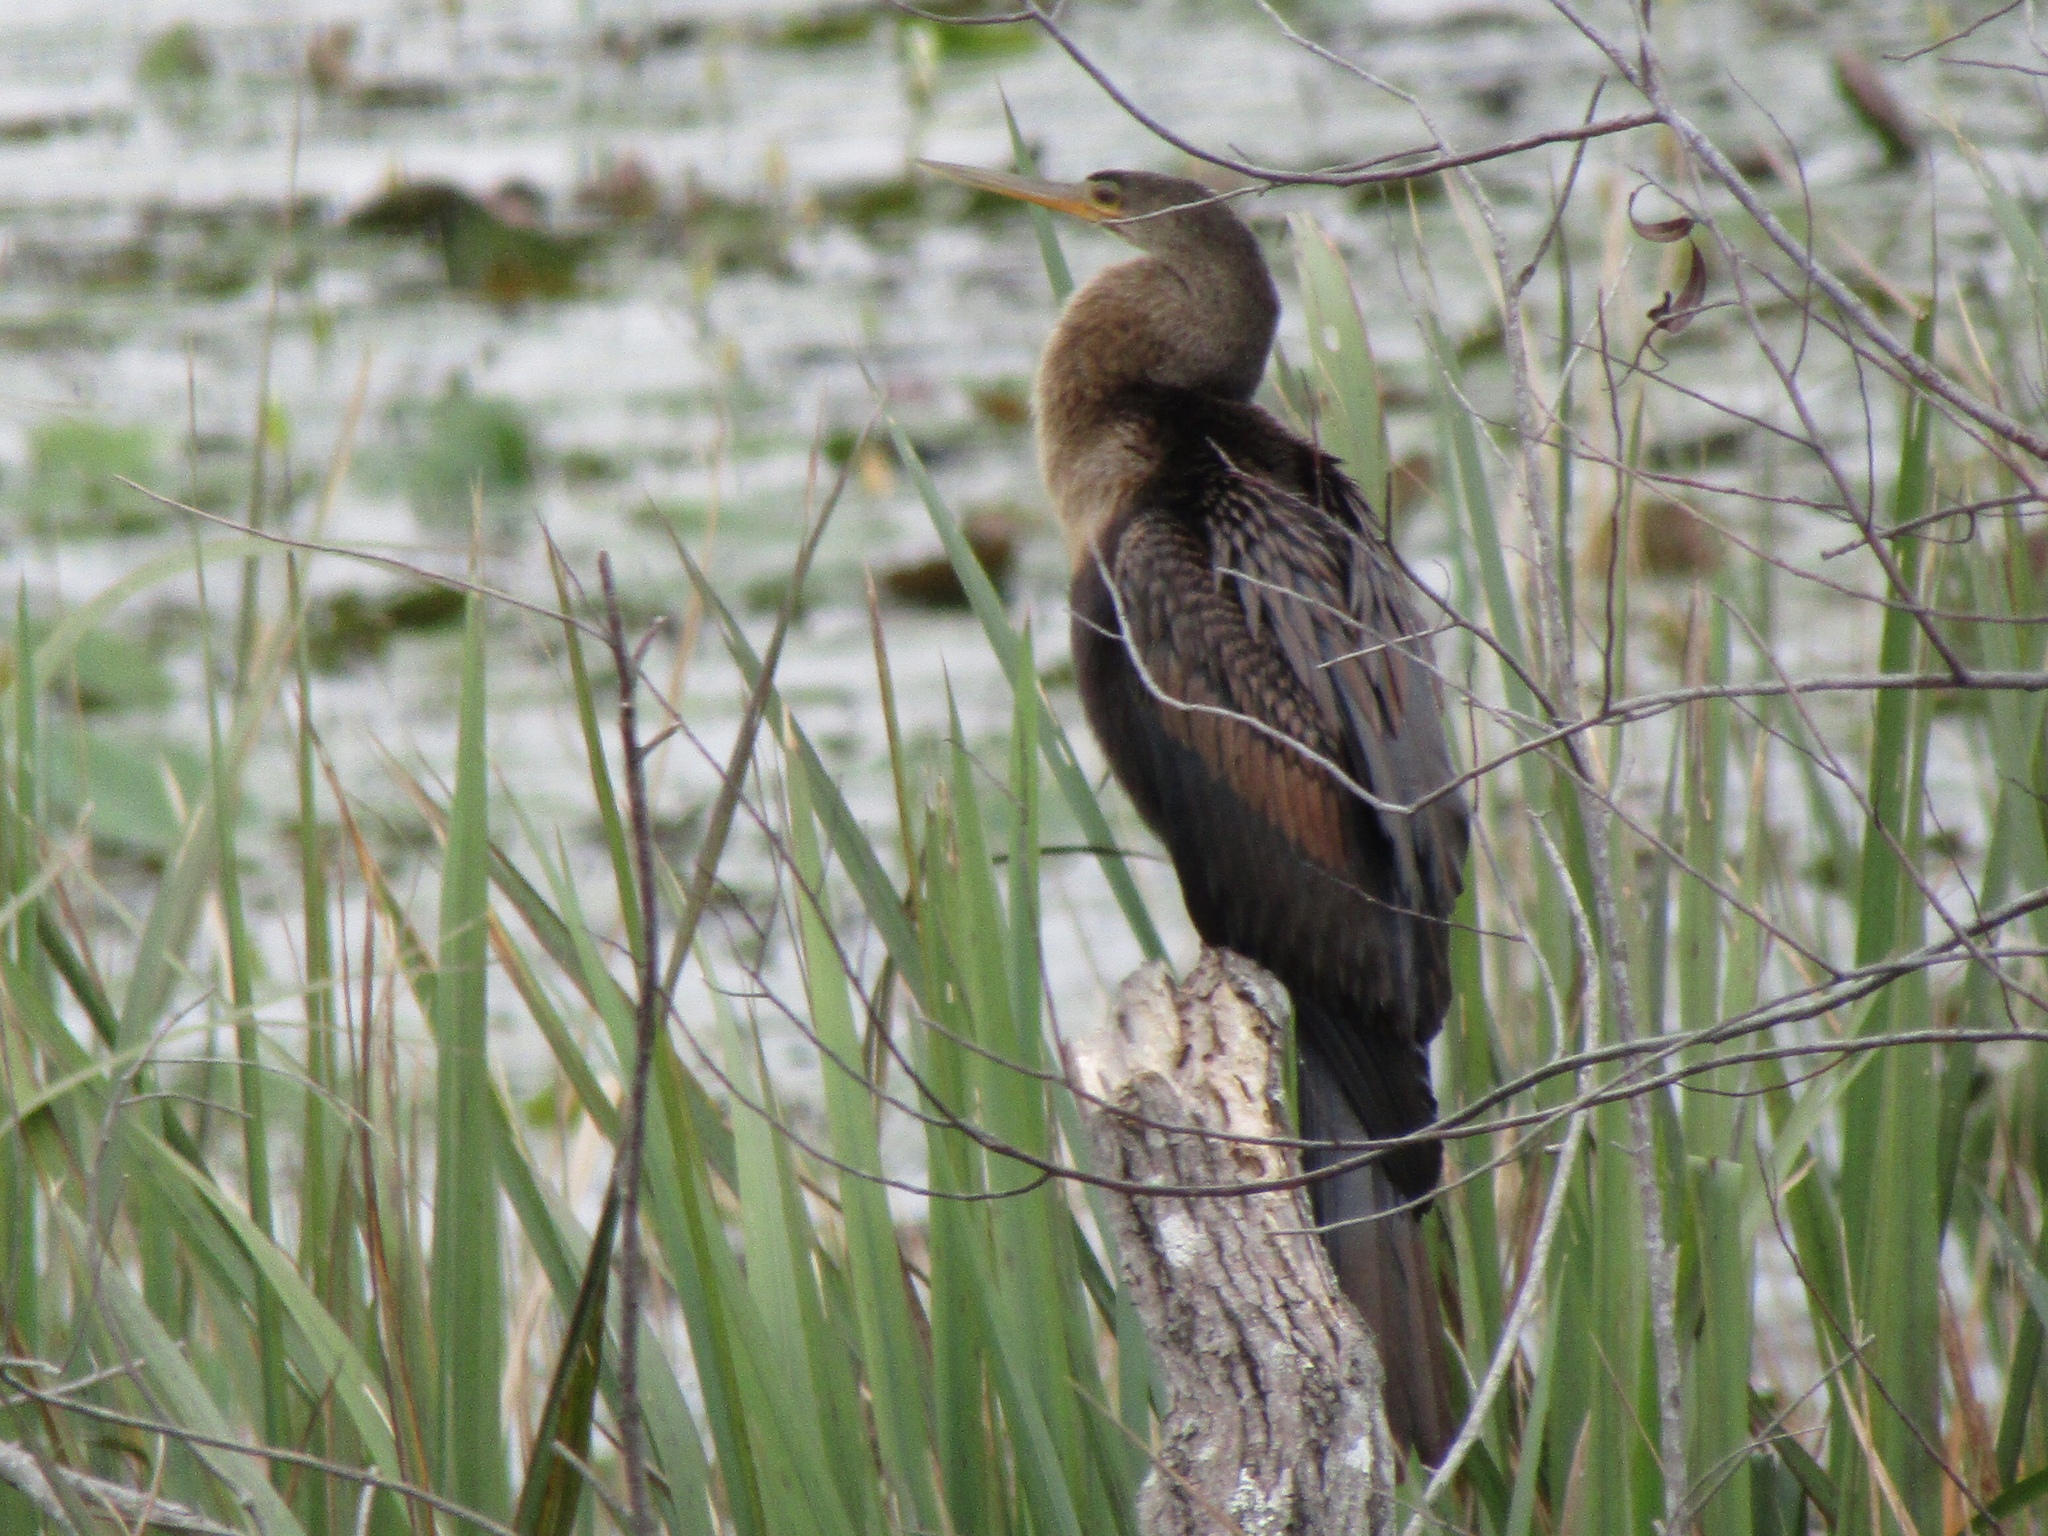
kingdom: Animalia
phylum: Chordata
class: Aves
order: Suliformes
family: Anhingidae
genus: Anhinga
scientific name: Anhinga anhinga
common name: Anhinga
